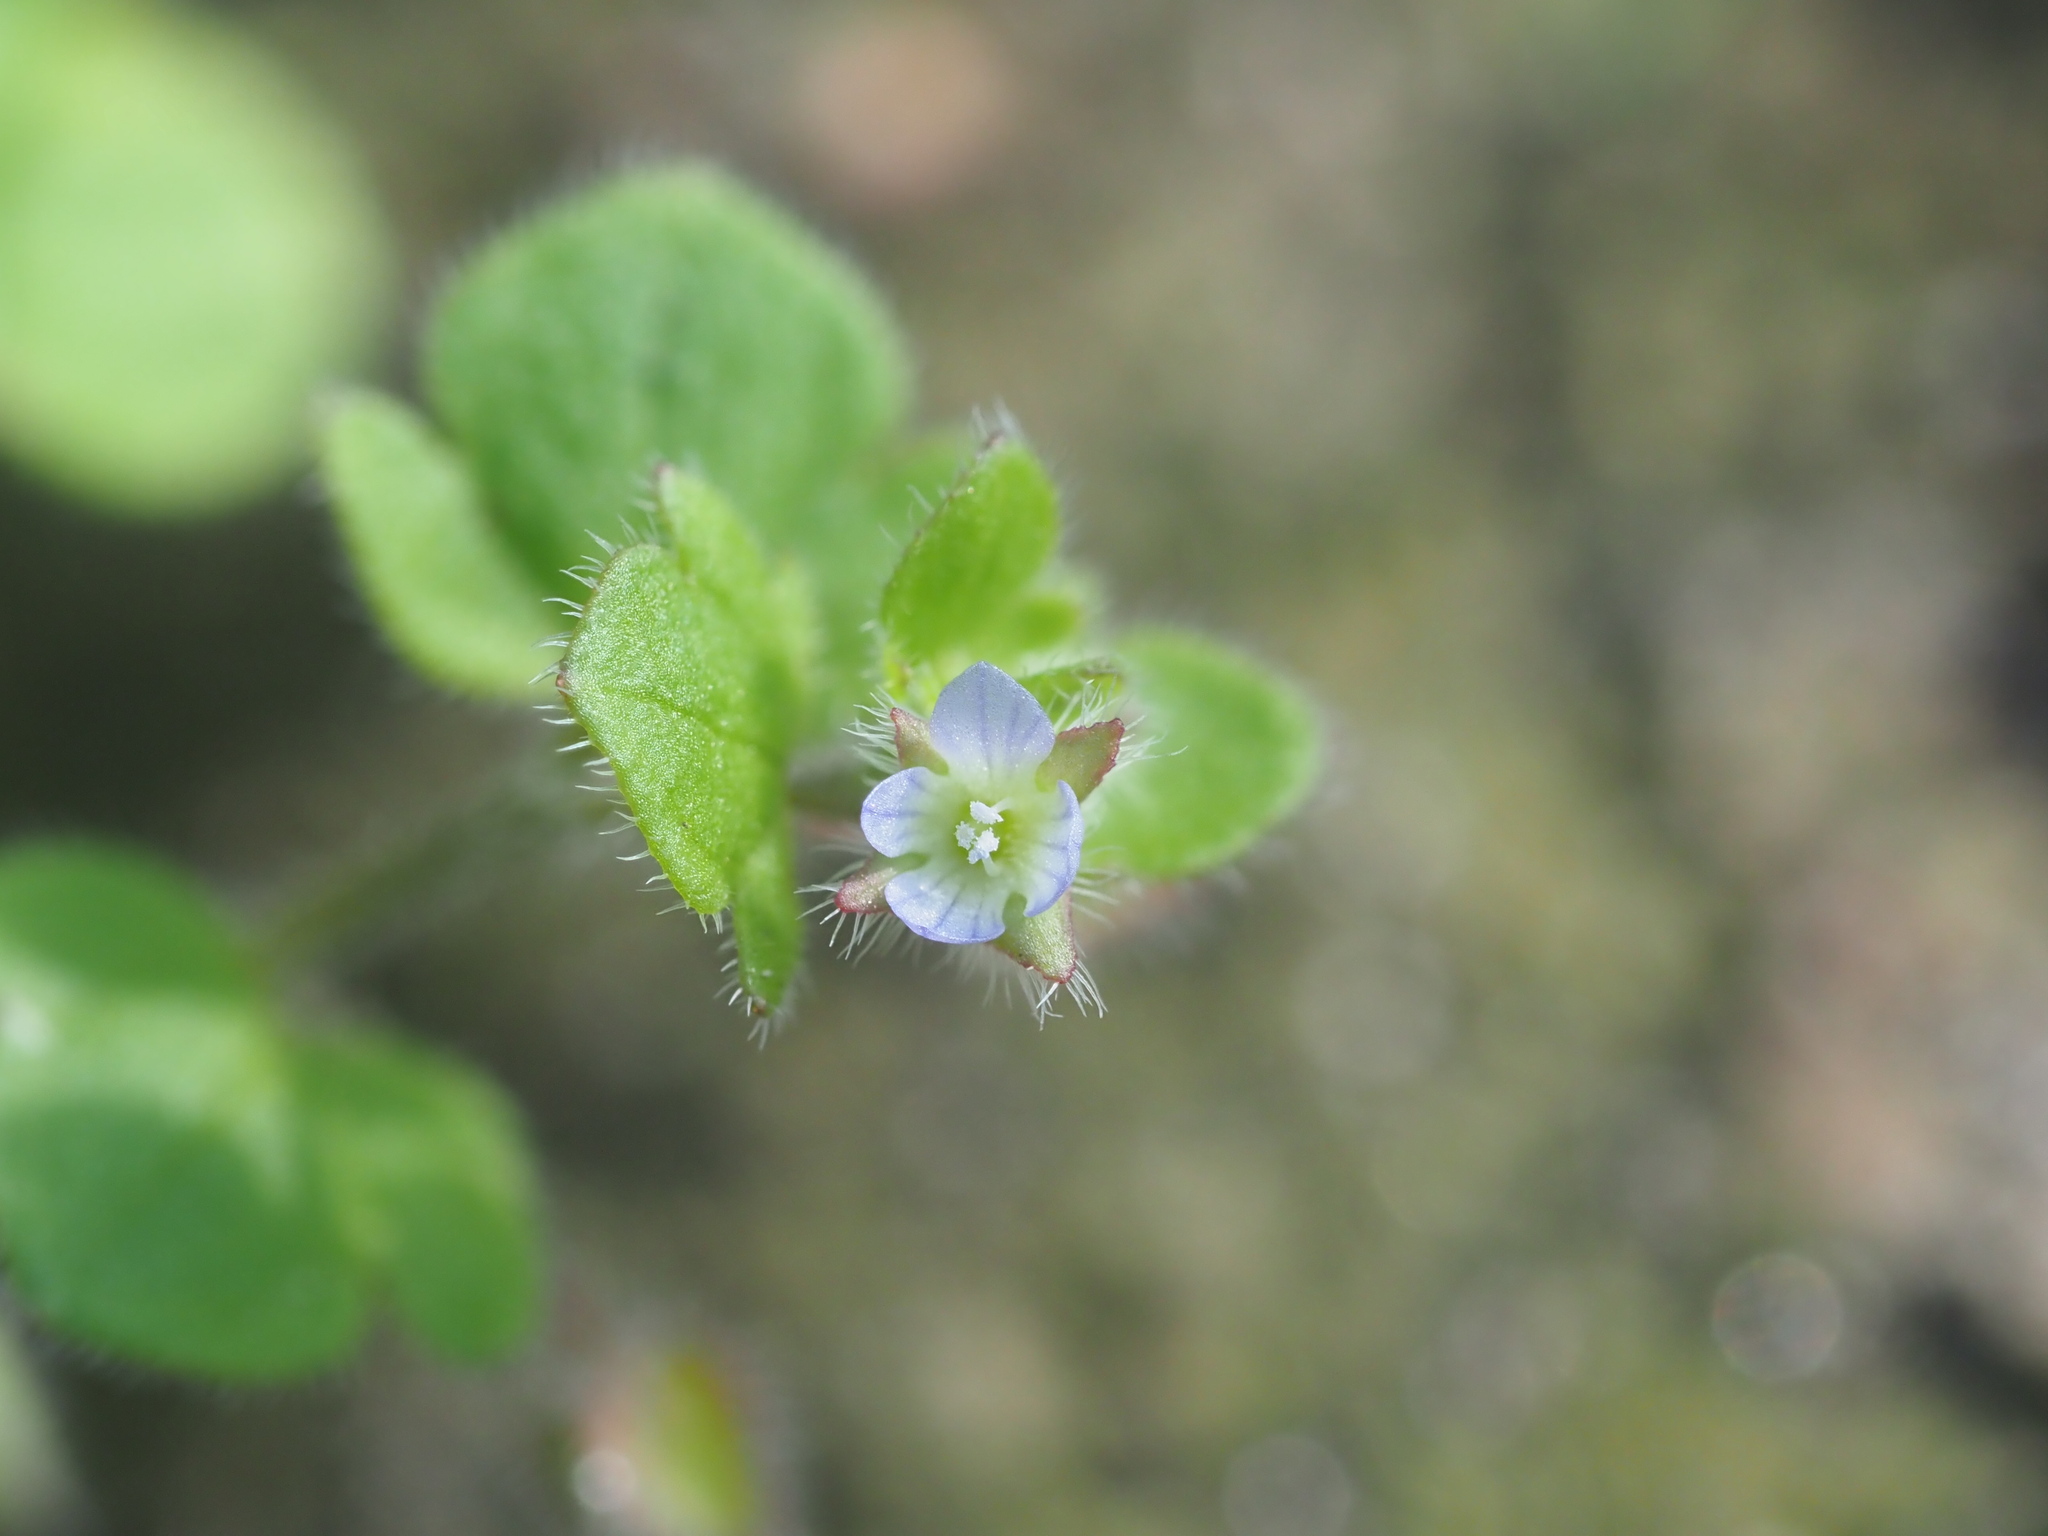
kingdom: Plantae
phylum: Tracheophyta
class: Magnoliopsida
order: Lamiales
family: Plantaginaceae
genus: Veronica
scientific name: Veronica sublobata
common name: False ivy-leaved speedwell
